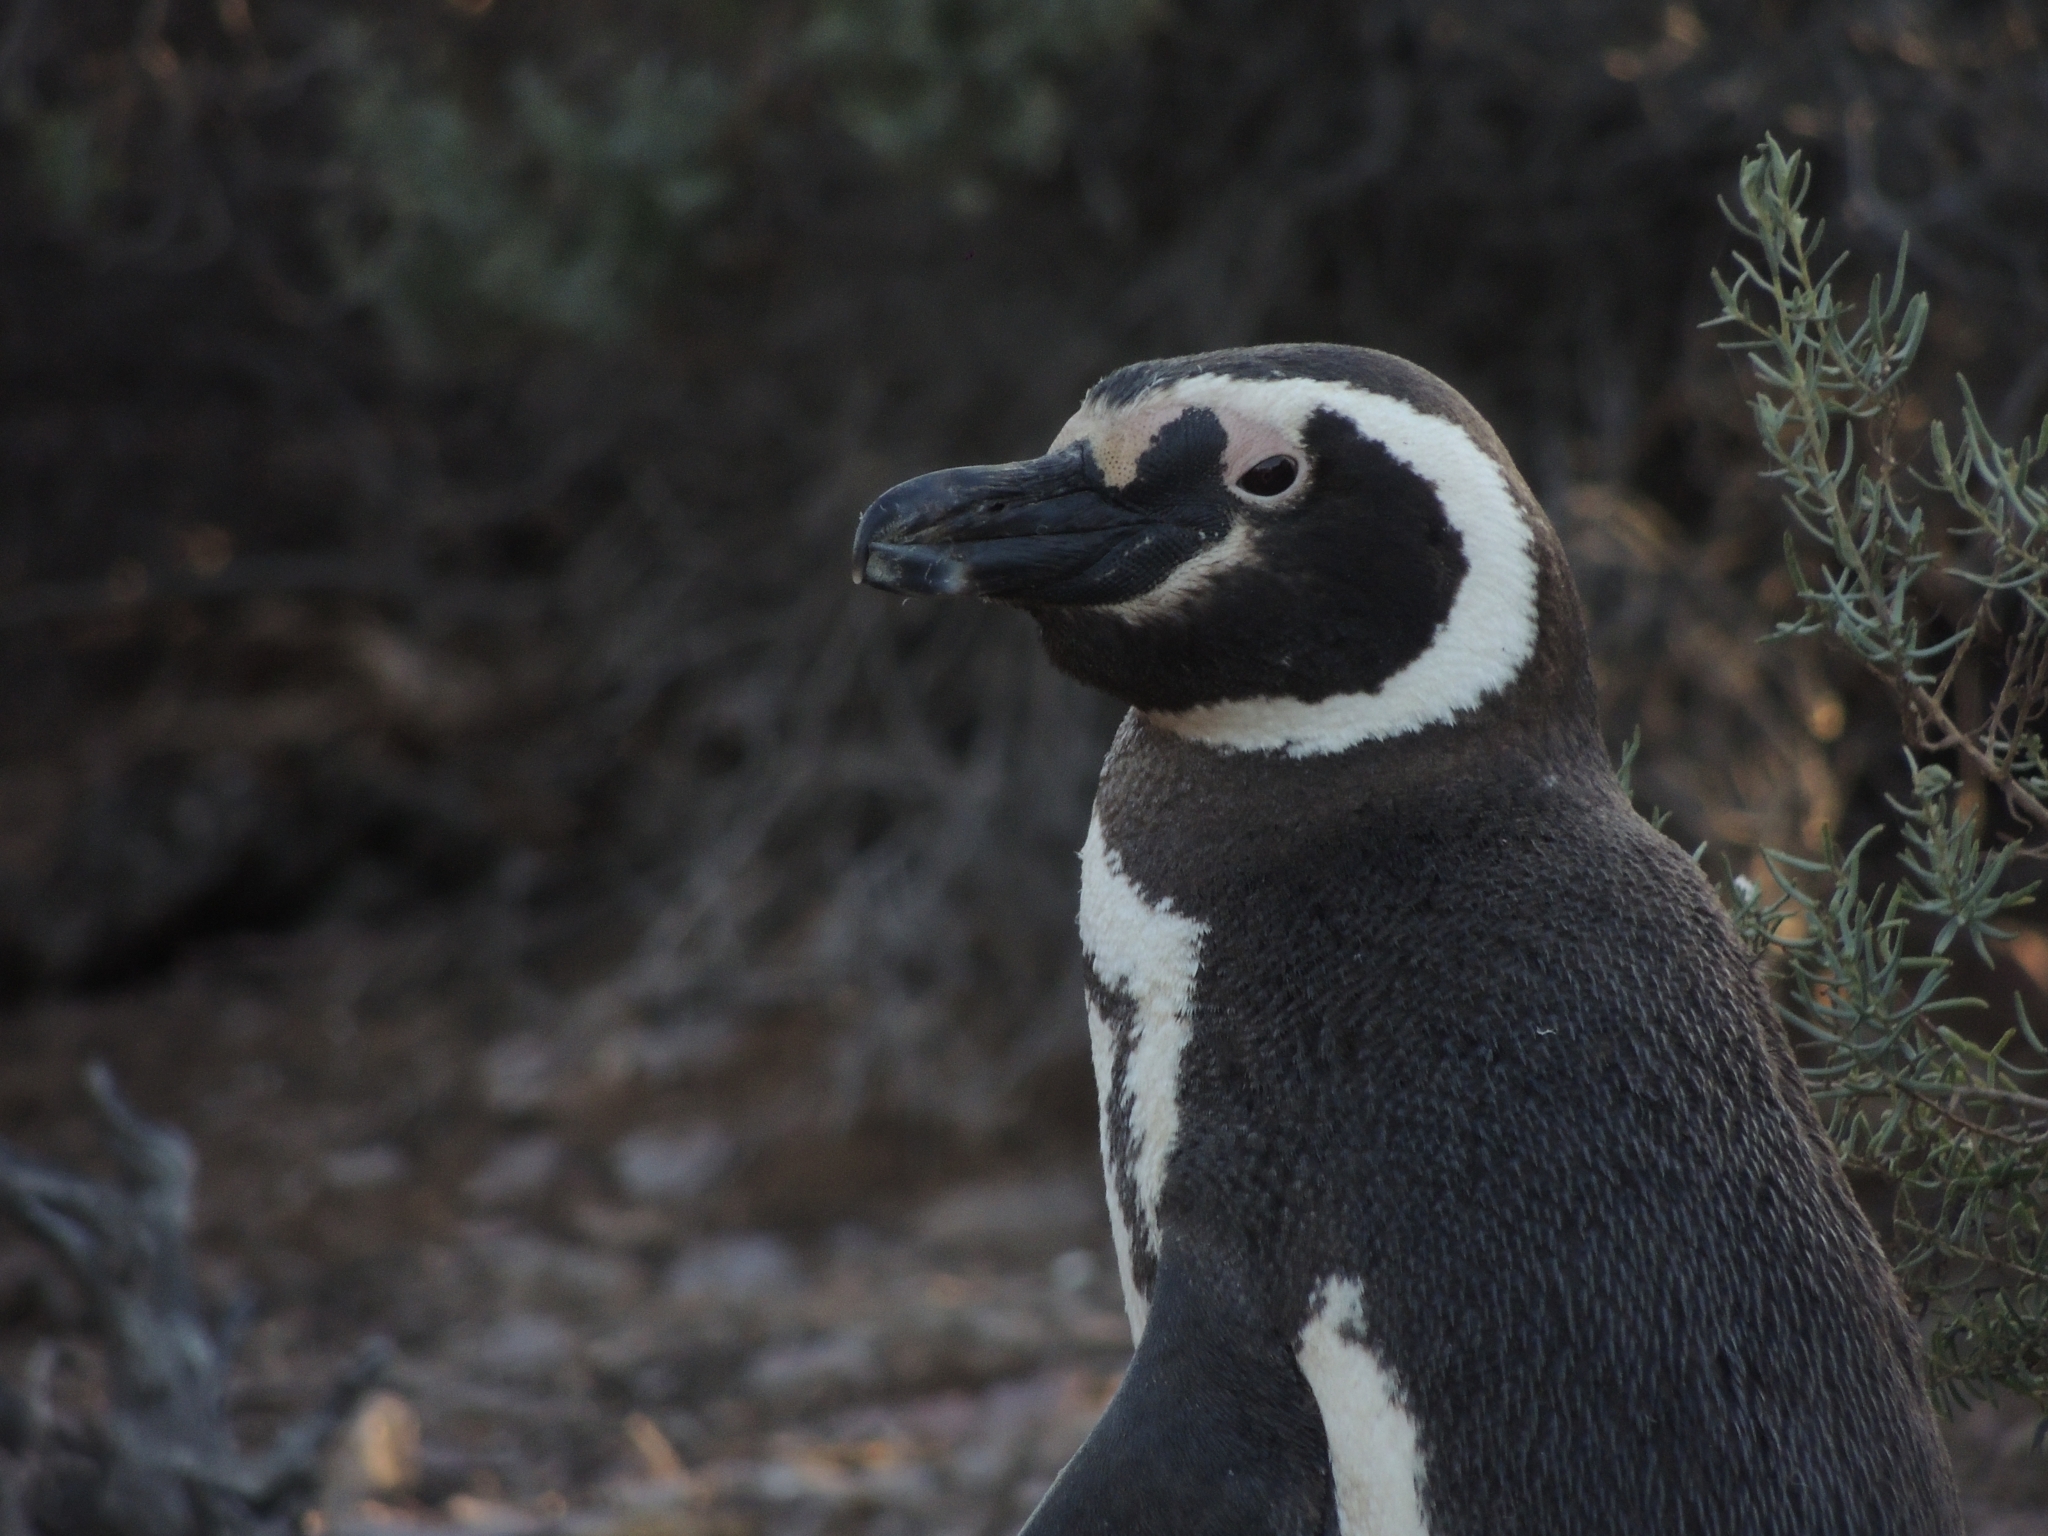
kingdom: Animalia
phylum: Chordata
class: Aves
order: Sphenisciformes
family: Spheniscidae
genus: Spheniscus
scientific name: Spheniscus magellanicus
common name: Magellanic penguin
